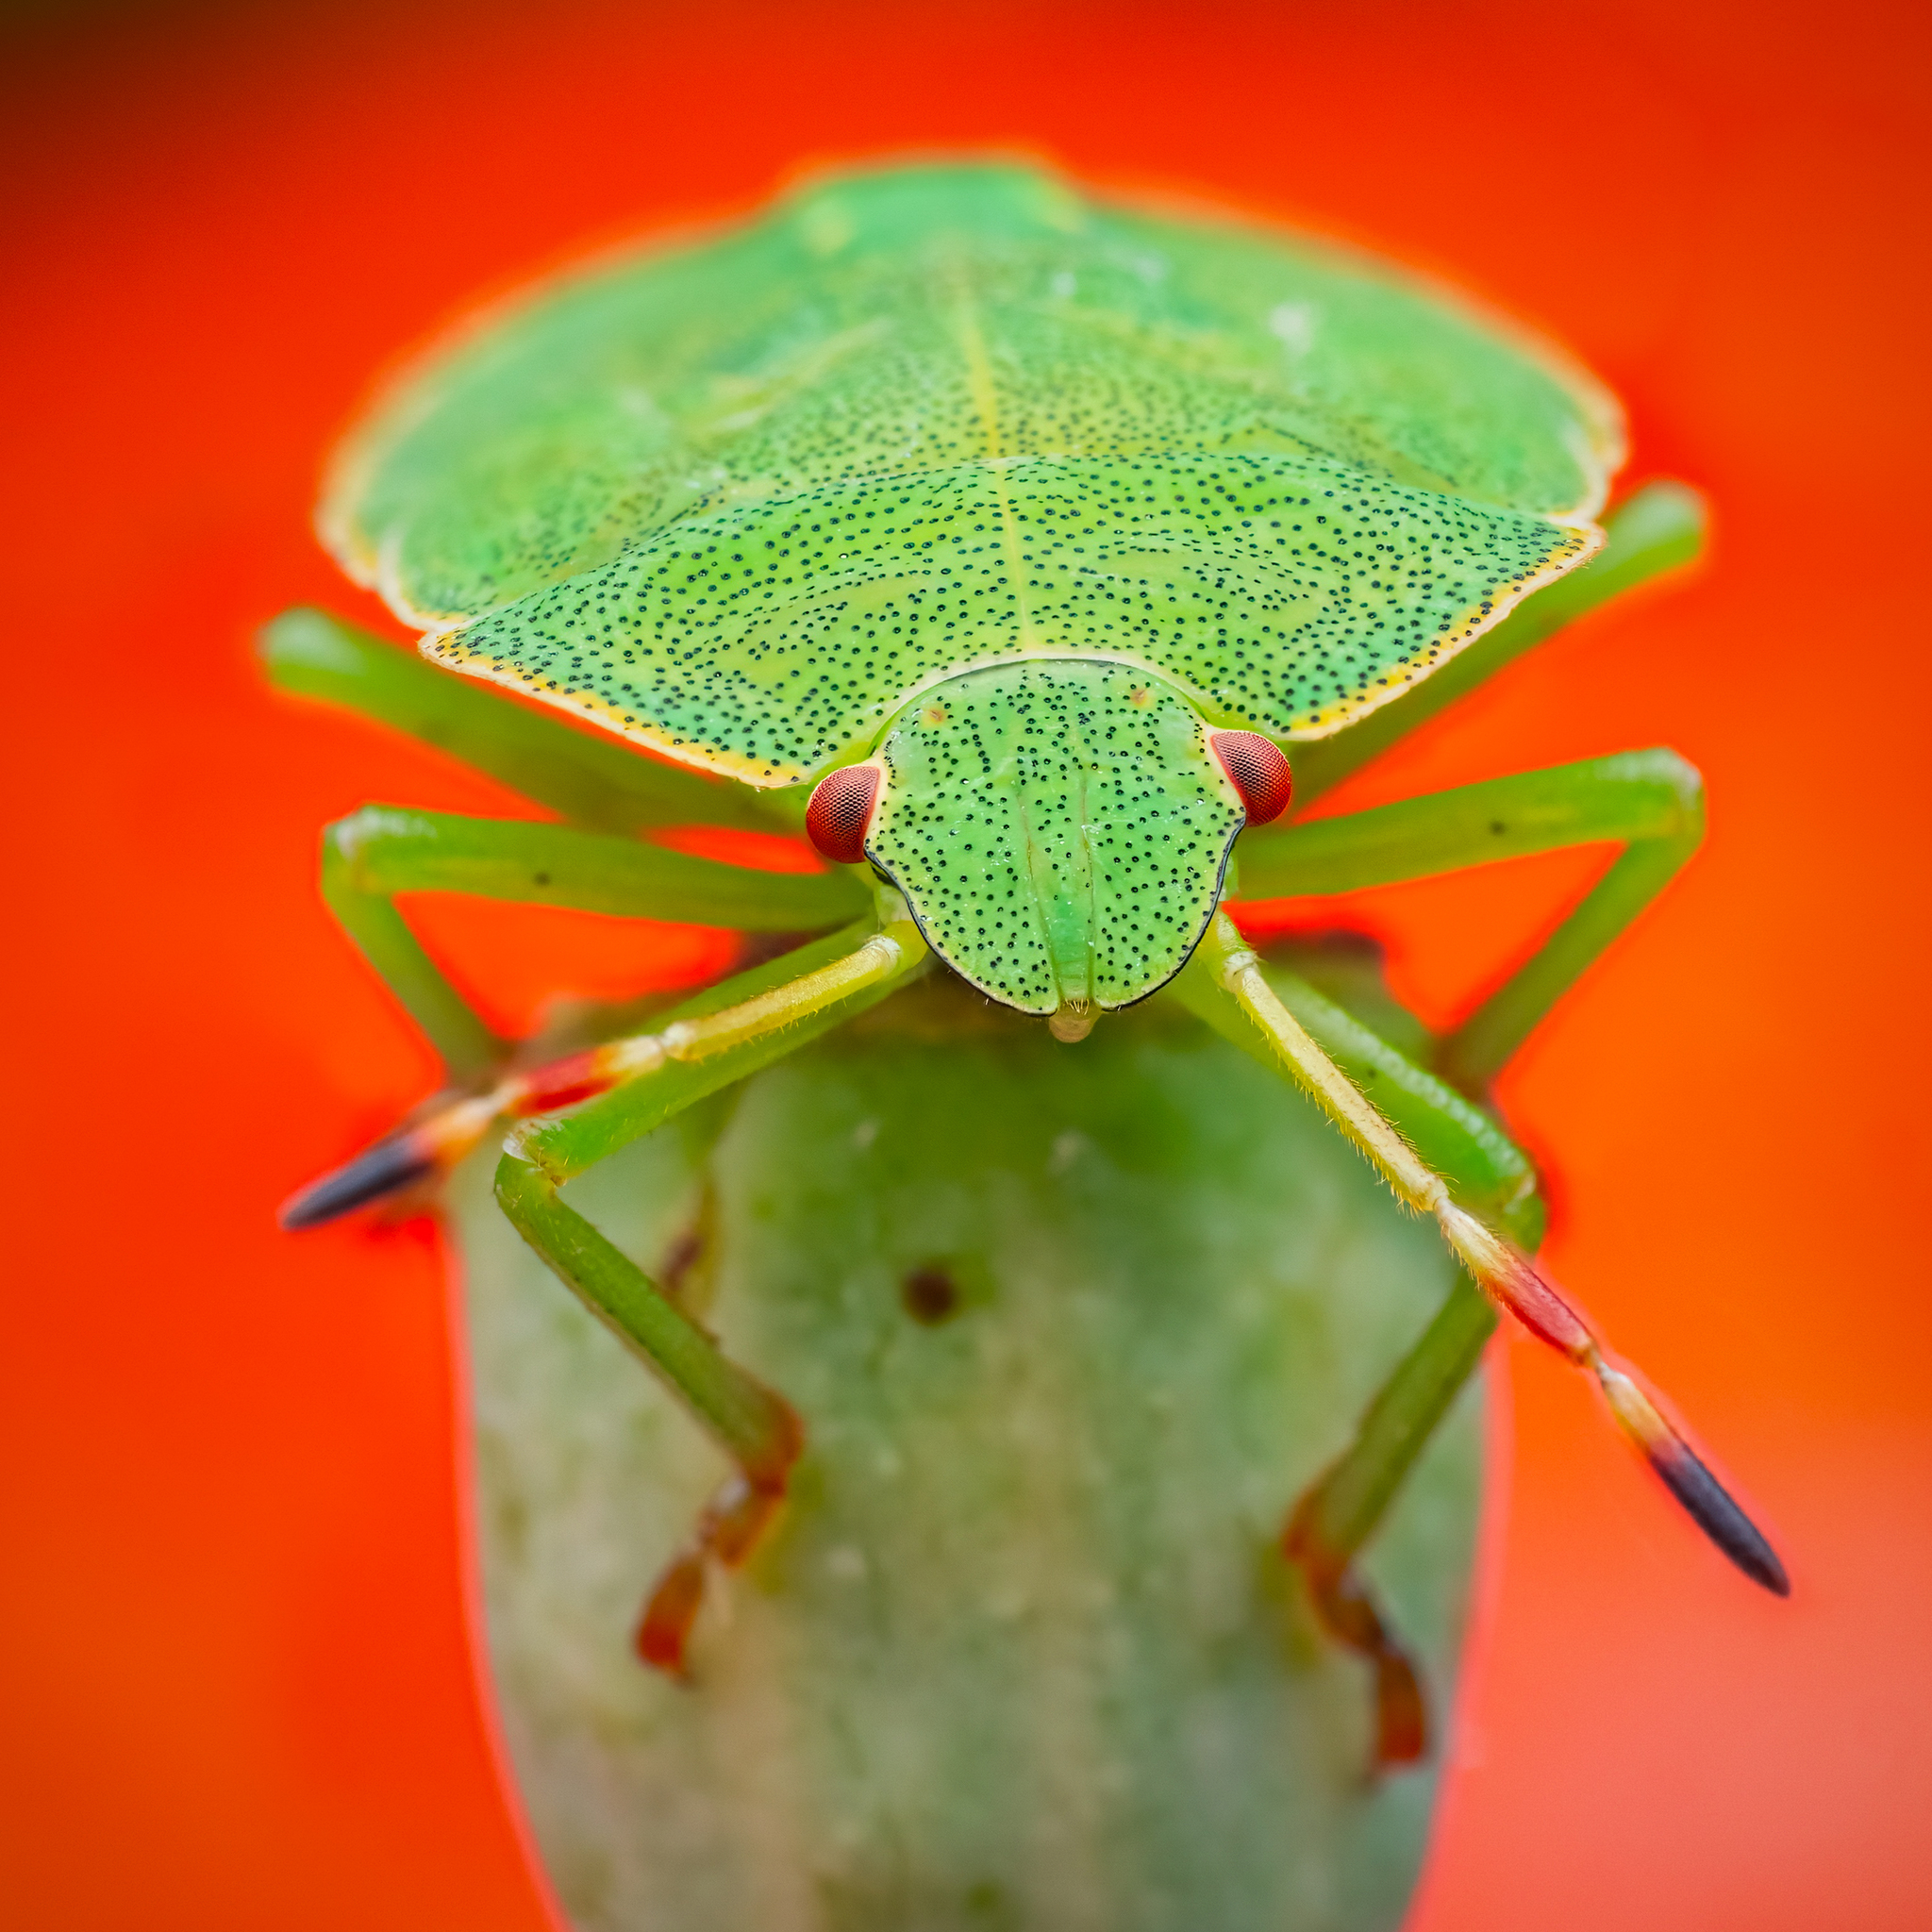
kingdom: Animalia
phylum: Arthropoda
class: Insecta
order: Hemiptera
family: Pentatomidae
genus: Palomena
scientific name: Palomena prasina
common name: Green shieldbug
